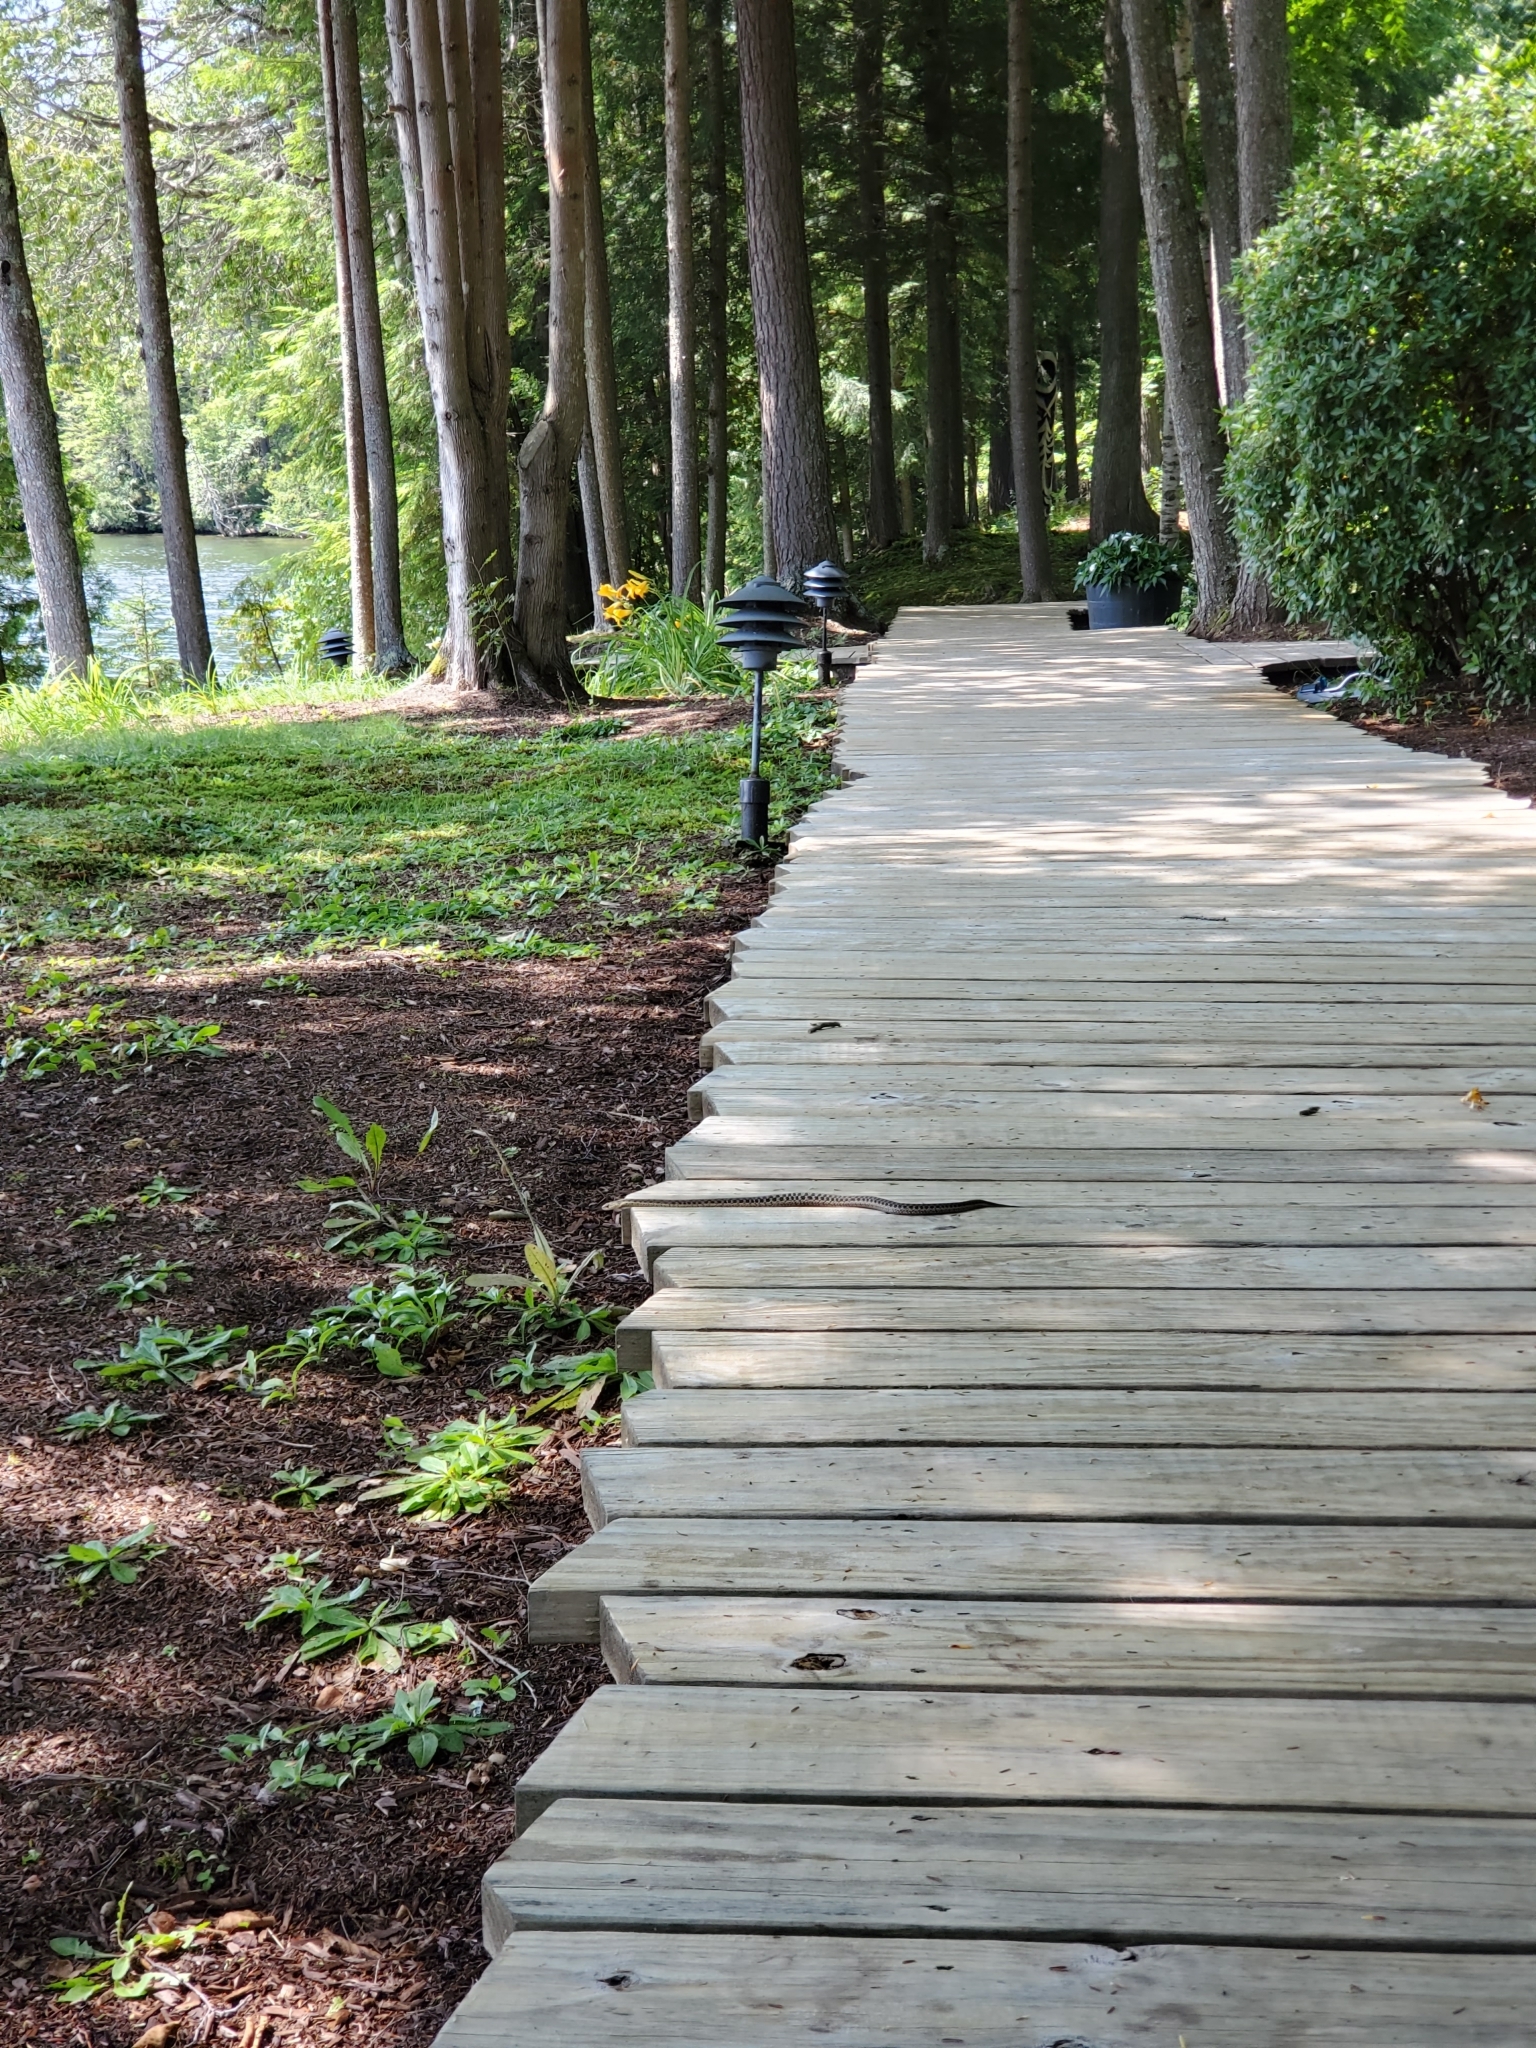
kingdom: Animalia
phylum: Chordata
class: Squamata
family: Colubridae
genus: Thamnophis
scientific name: Thamnophis sirtalis
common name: Common garter snake
